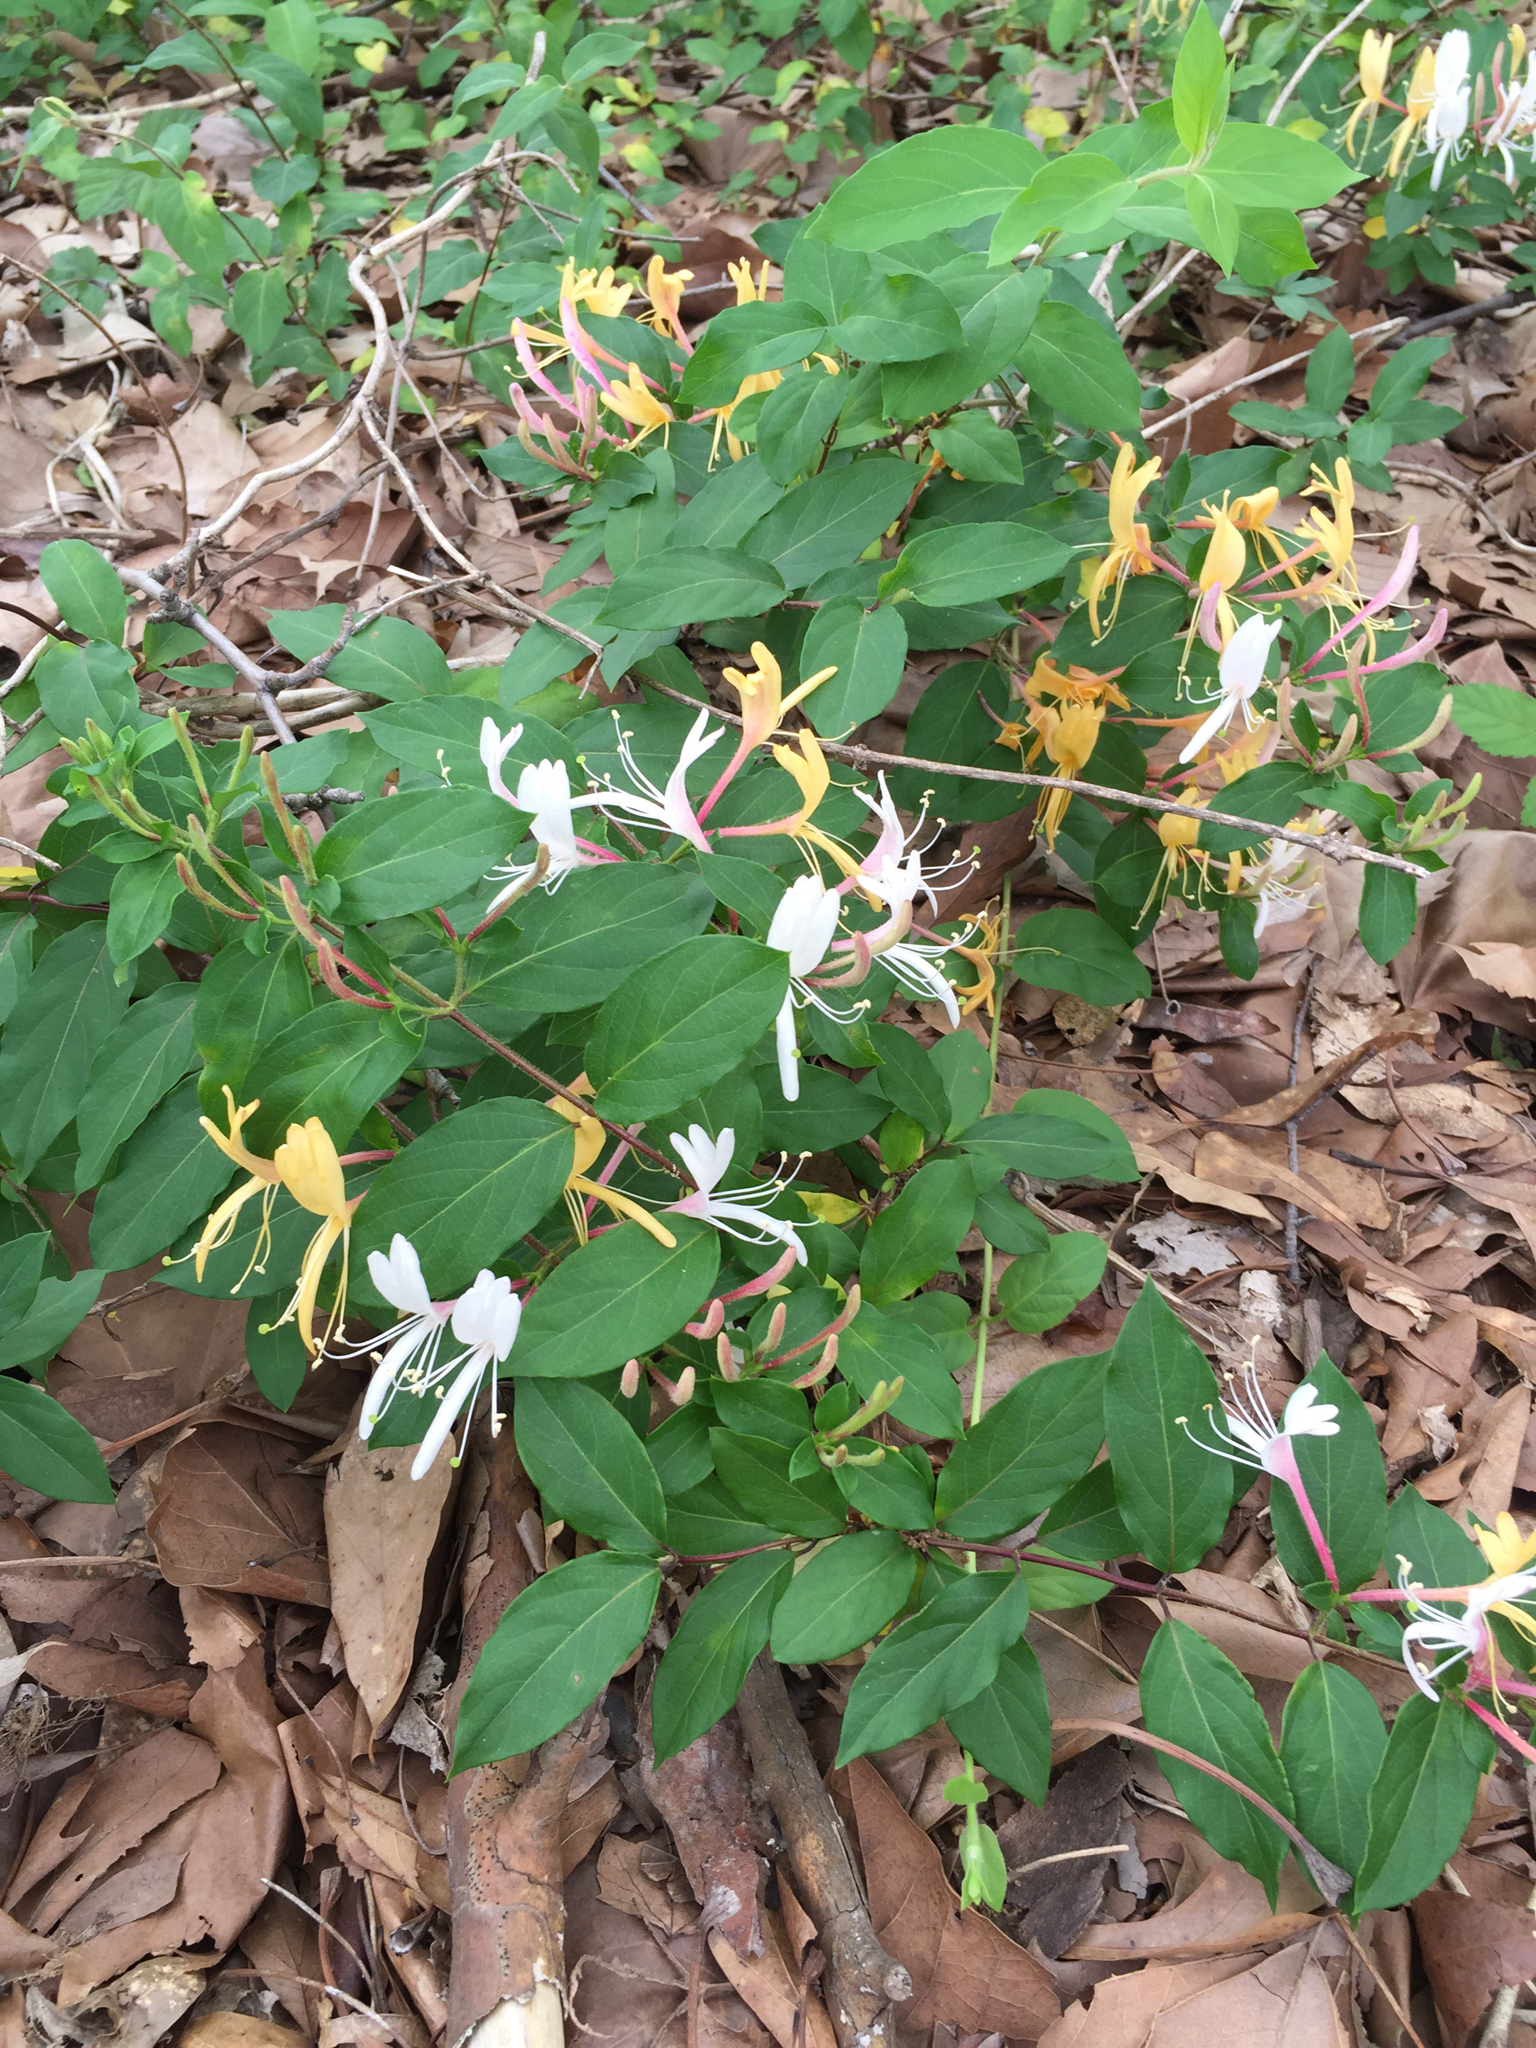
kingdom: Plantae
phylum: Tracheophyta
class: Magnoliopsida
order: Dipsacales
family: Caprifoliaceae
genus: Lonicera
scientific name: Lonicera japonica
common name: Japanese honeysuckle
